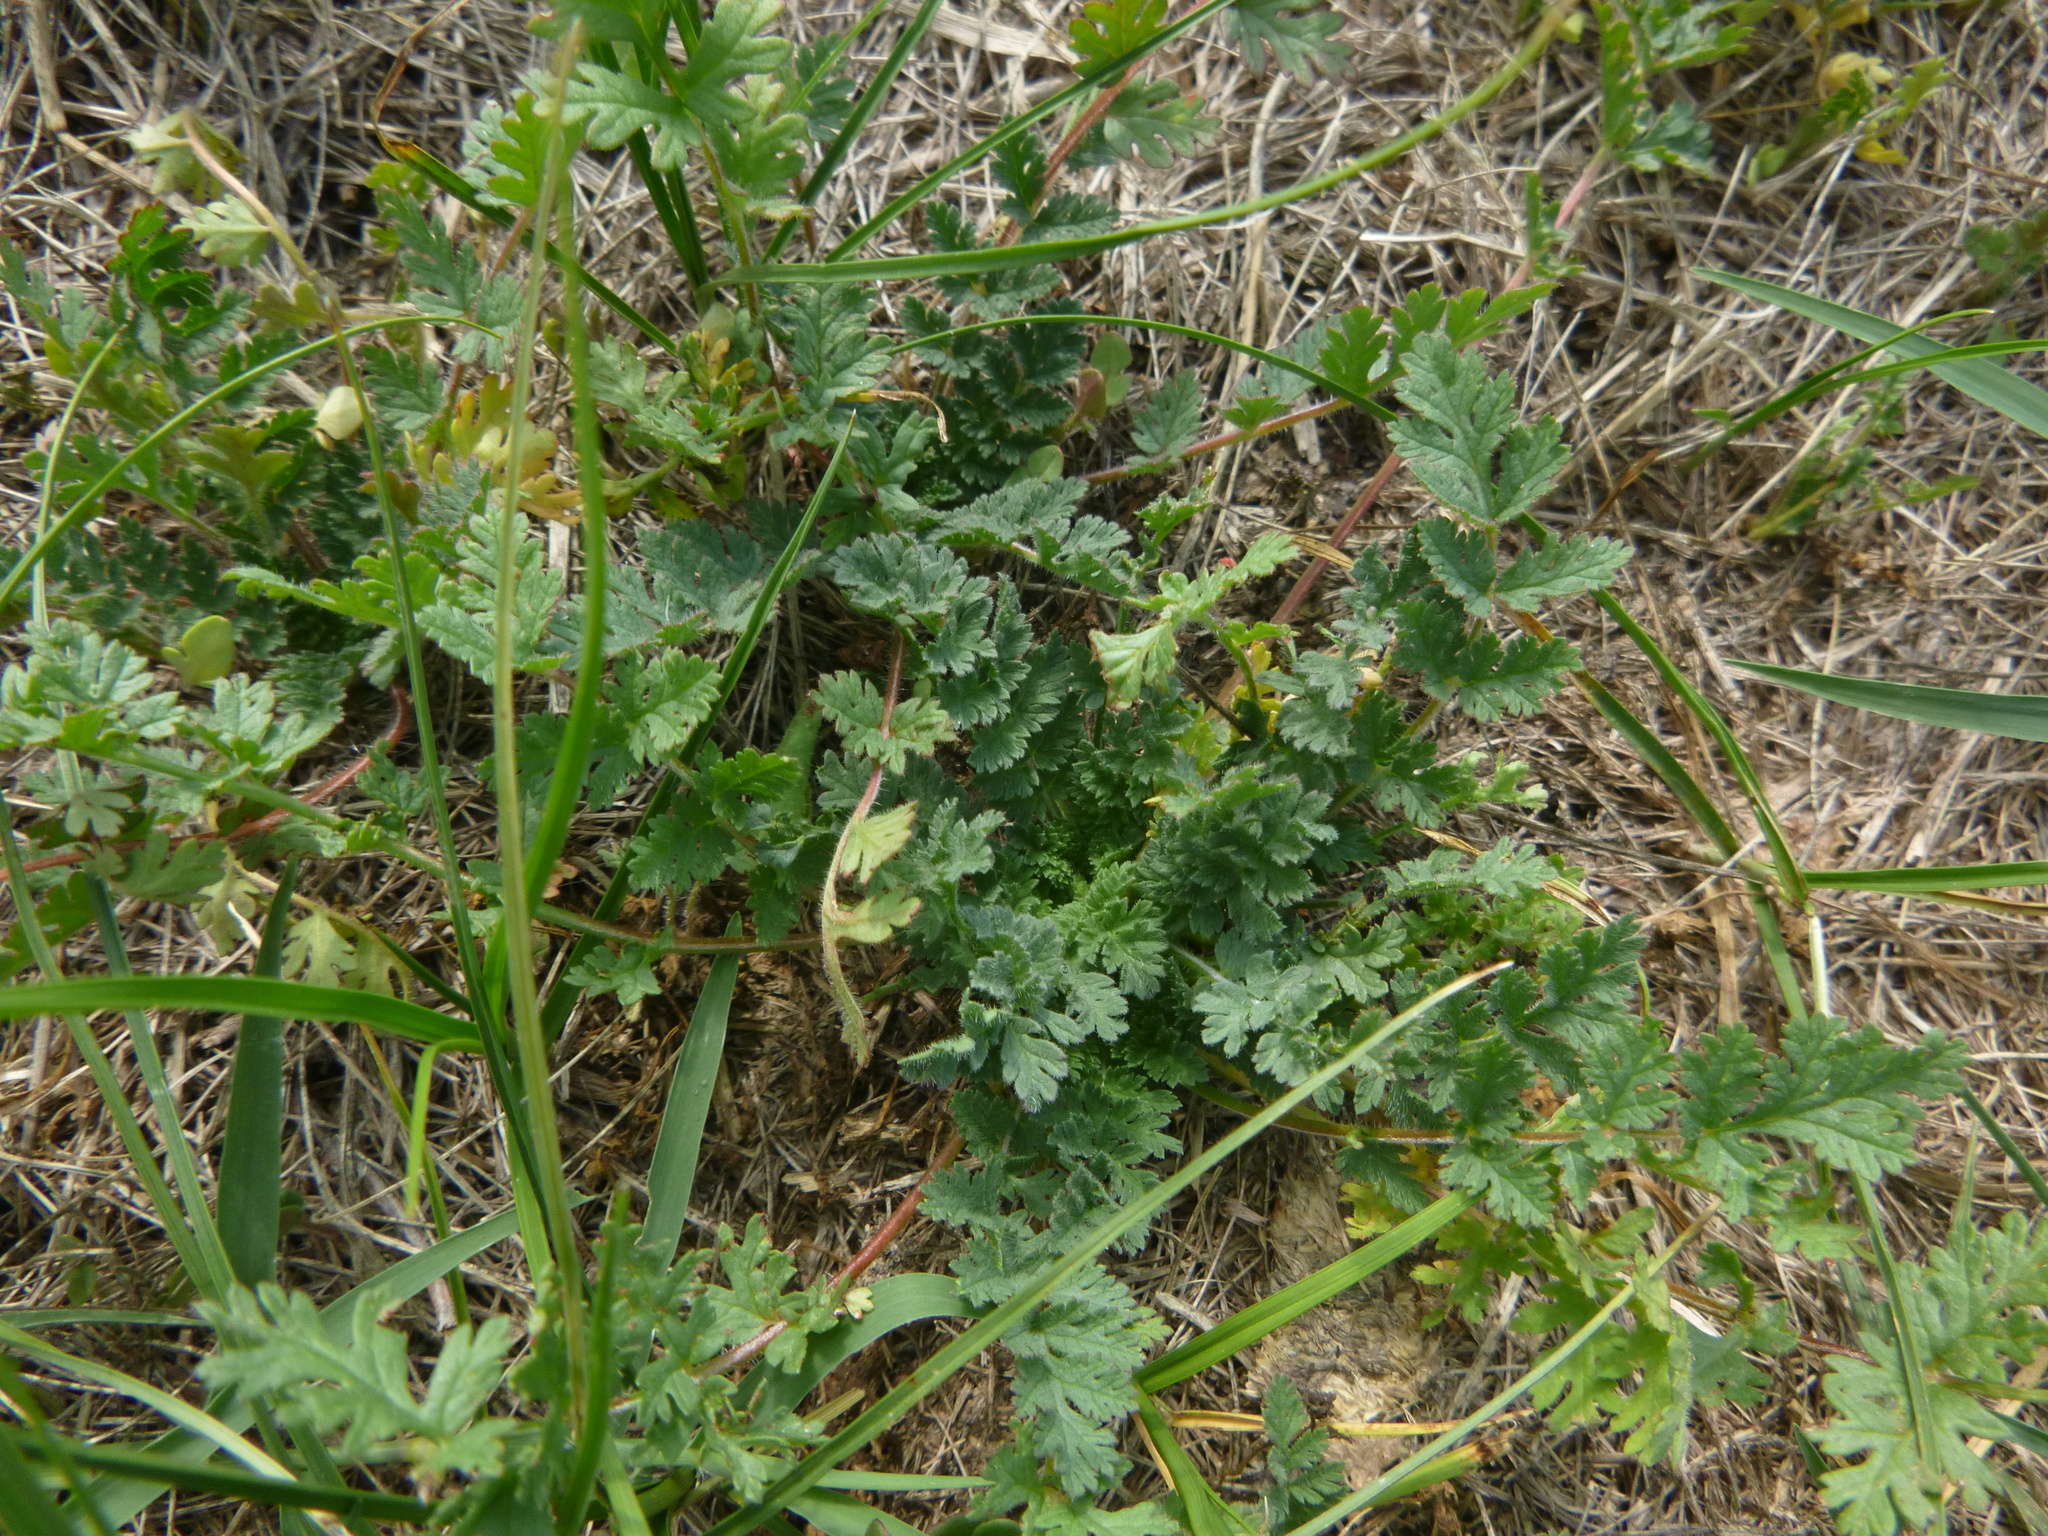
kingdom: Plantae
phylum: Tracheophyta
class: Magnoliopsida
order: Geraniales
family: Geraniaceae
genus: Erodium
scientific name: Erodium cicutarium
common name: Common stork's-bill
